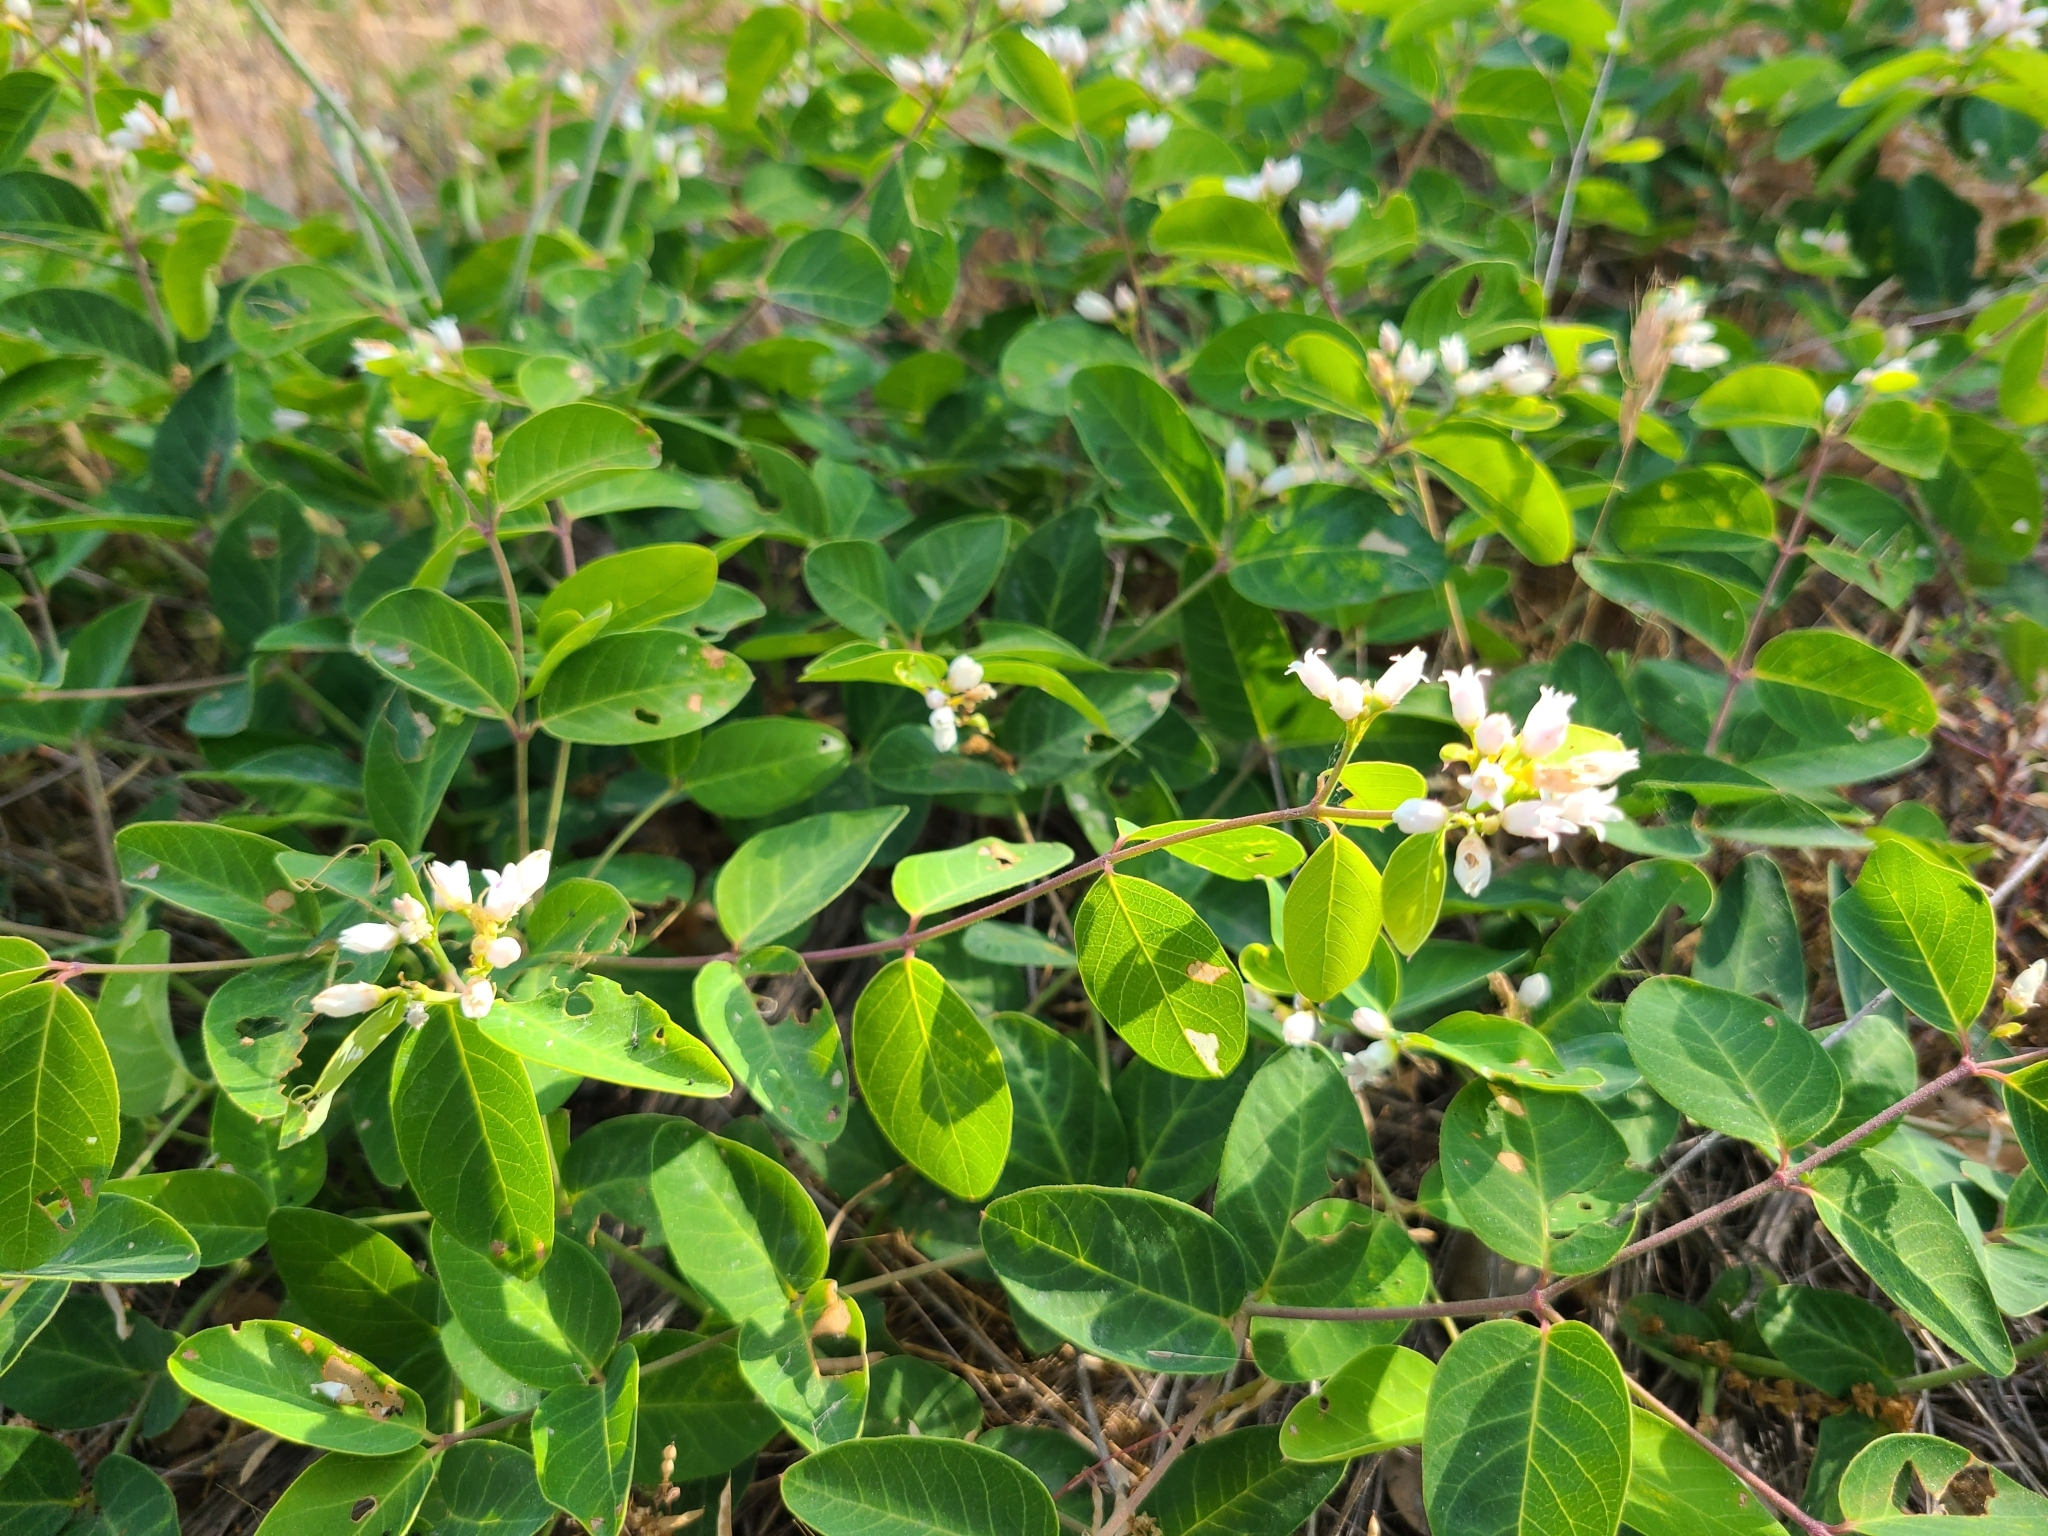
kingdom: Plantae
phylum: Tracheophyta
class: Magnoliopsida
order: Gentianales
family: Apocynaceae
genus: Apocynum
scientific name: Apocynum androsaemifolium
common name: Spreading dogbane
